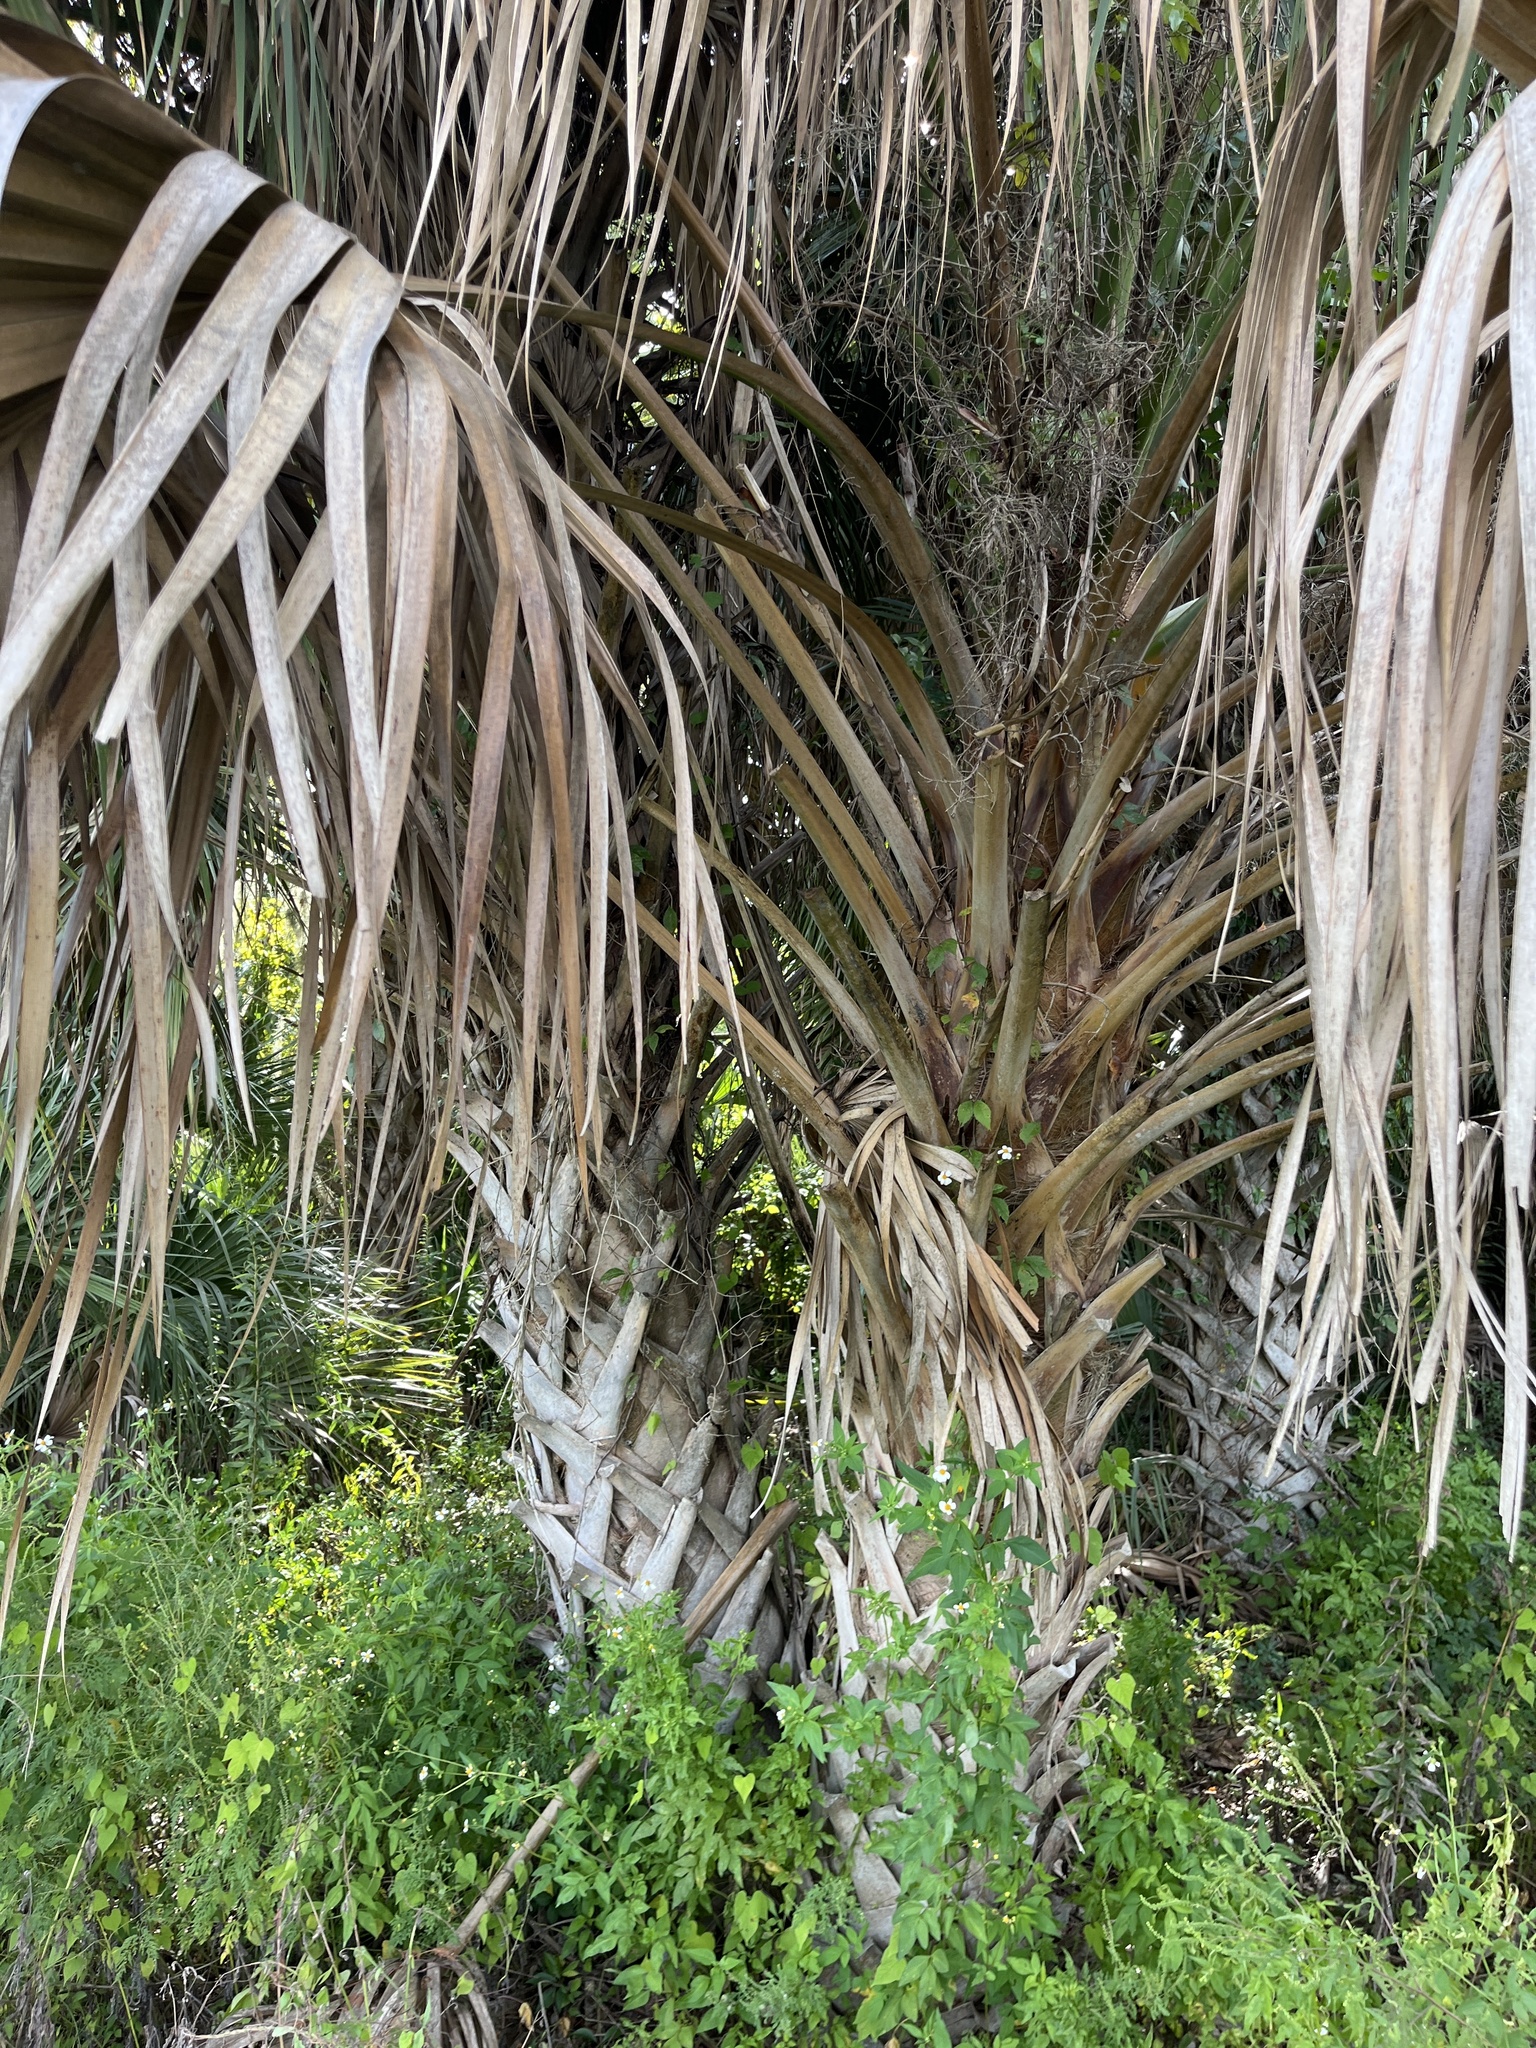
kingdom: Plantae
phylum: Tracheophyta
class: Liliopsida
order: Arecales
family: Arecaceae
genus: Sabal
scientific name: Sabal palmetto
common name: Blue palmetto
